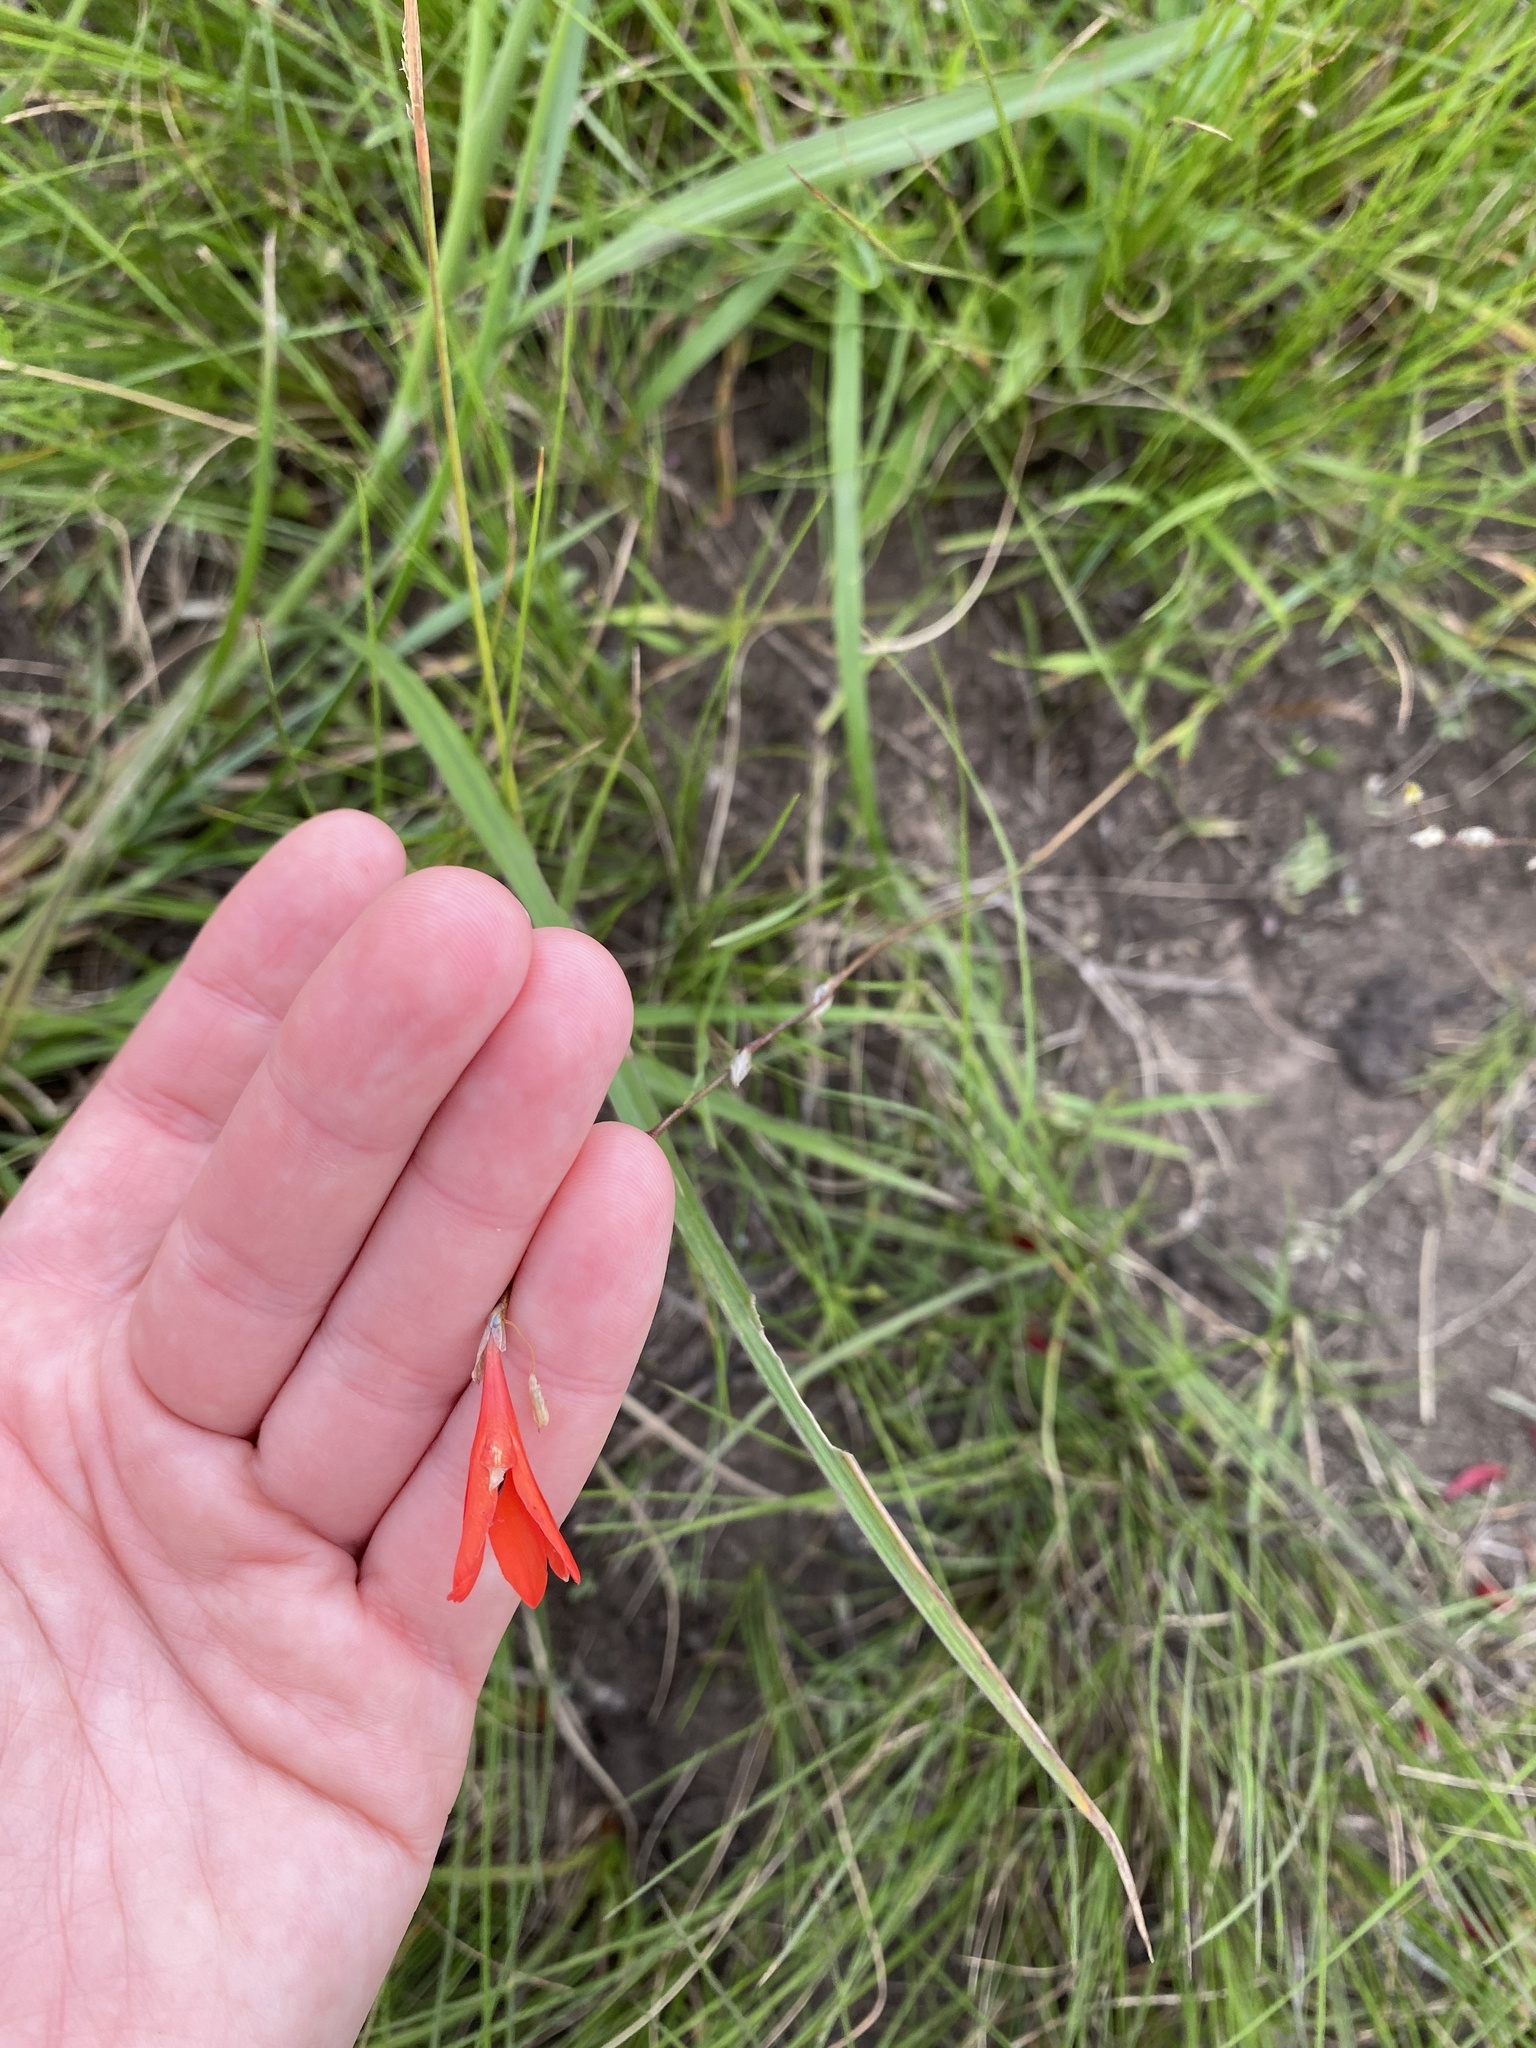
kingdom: Plantae
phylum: Tracheophyta
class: Liliopsida
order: Asparagales
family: Iridaceae
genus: Tritonia
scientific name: Tritonia disticha
